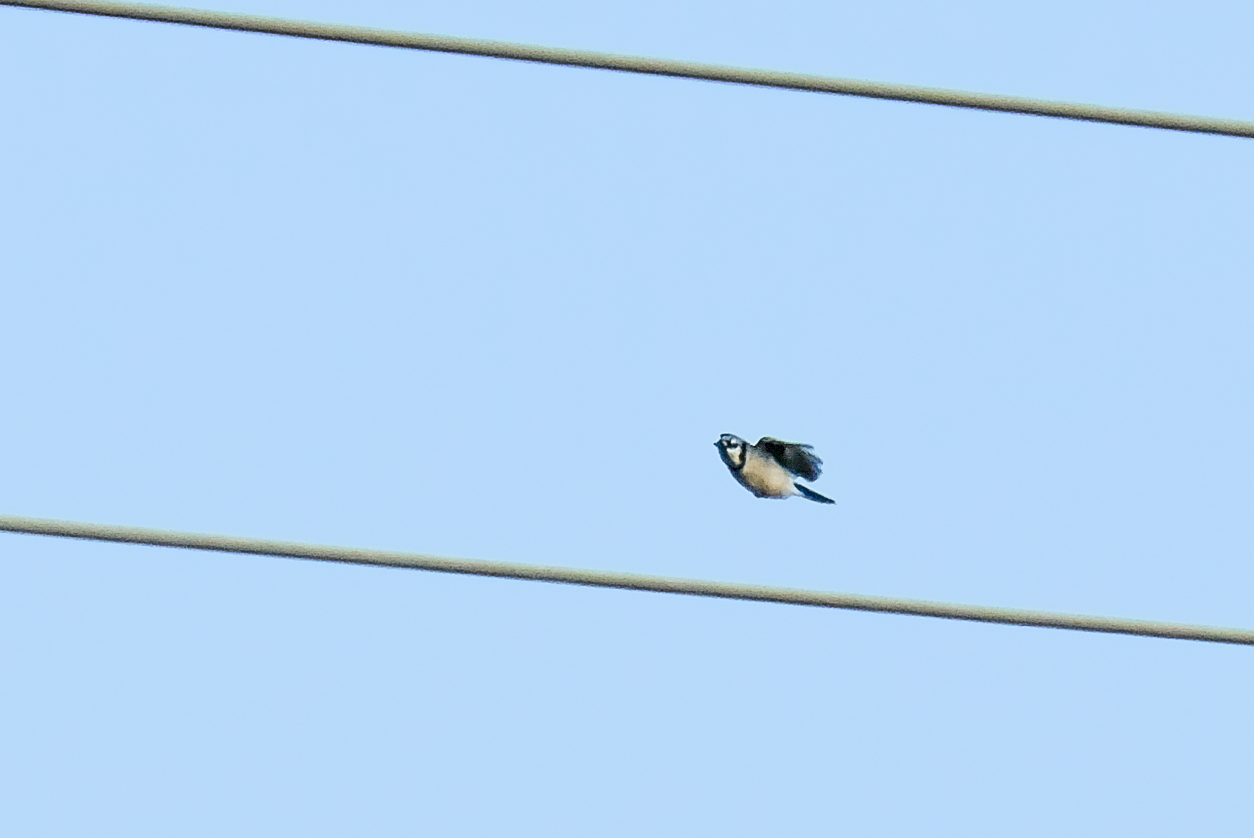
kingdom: Animalia
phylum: Chordata
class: Aves
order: Passeriformes
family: Corvidae
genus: Cyanocitta
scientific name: Cyanocitta cristata
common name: Blue jay
